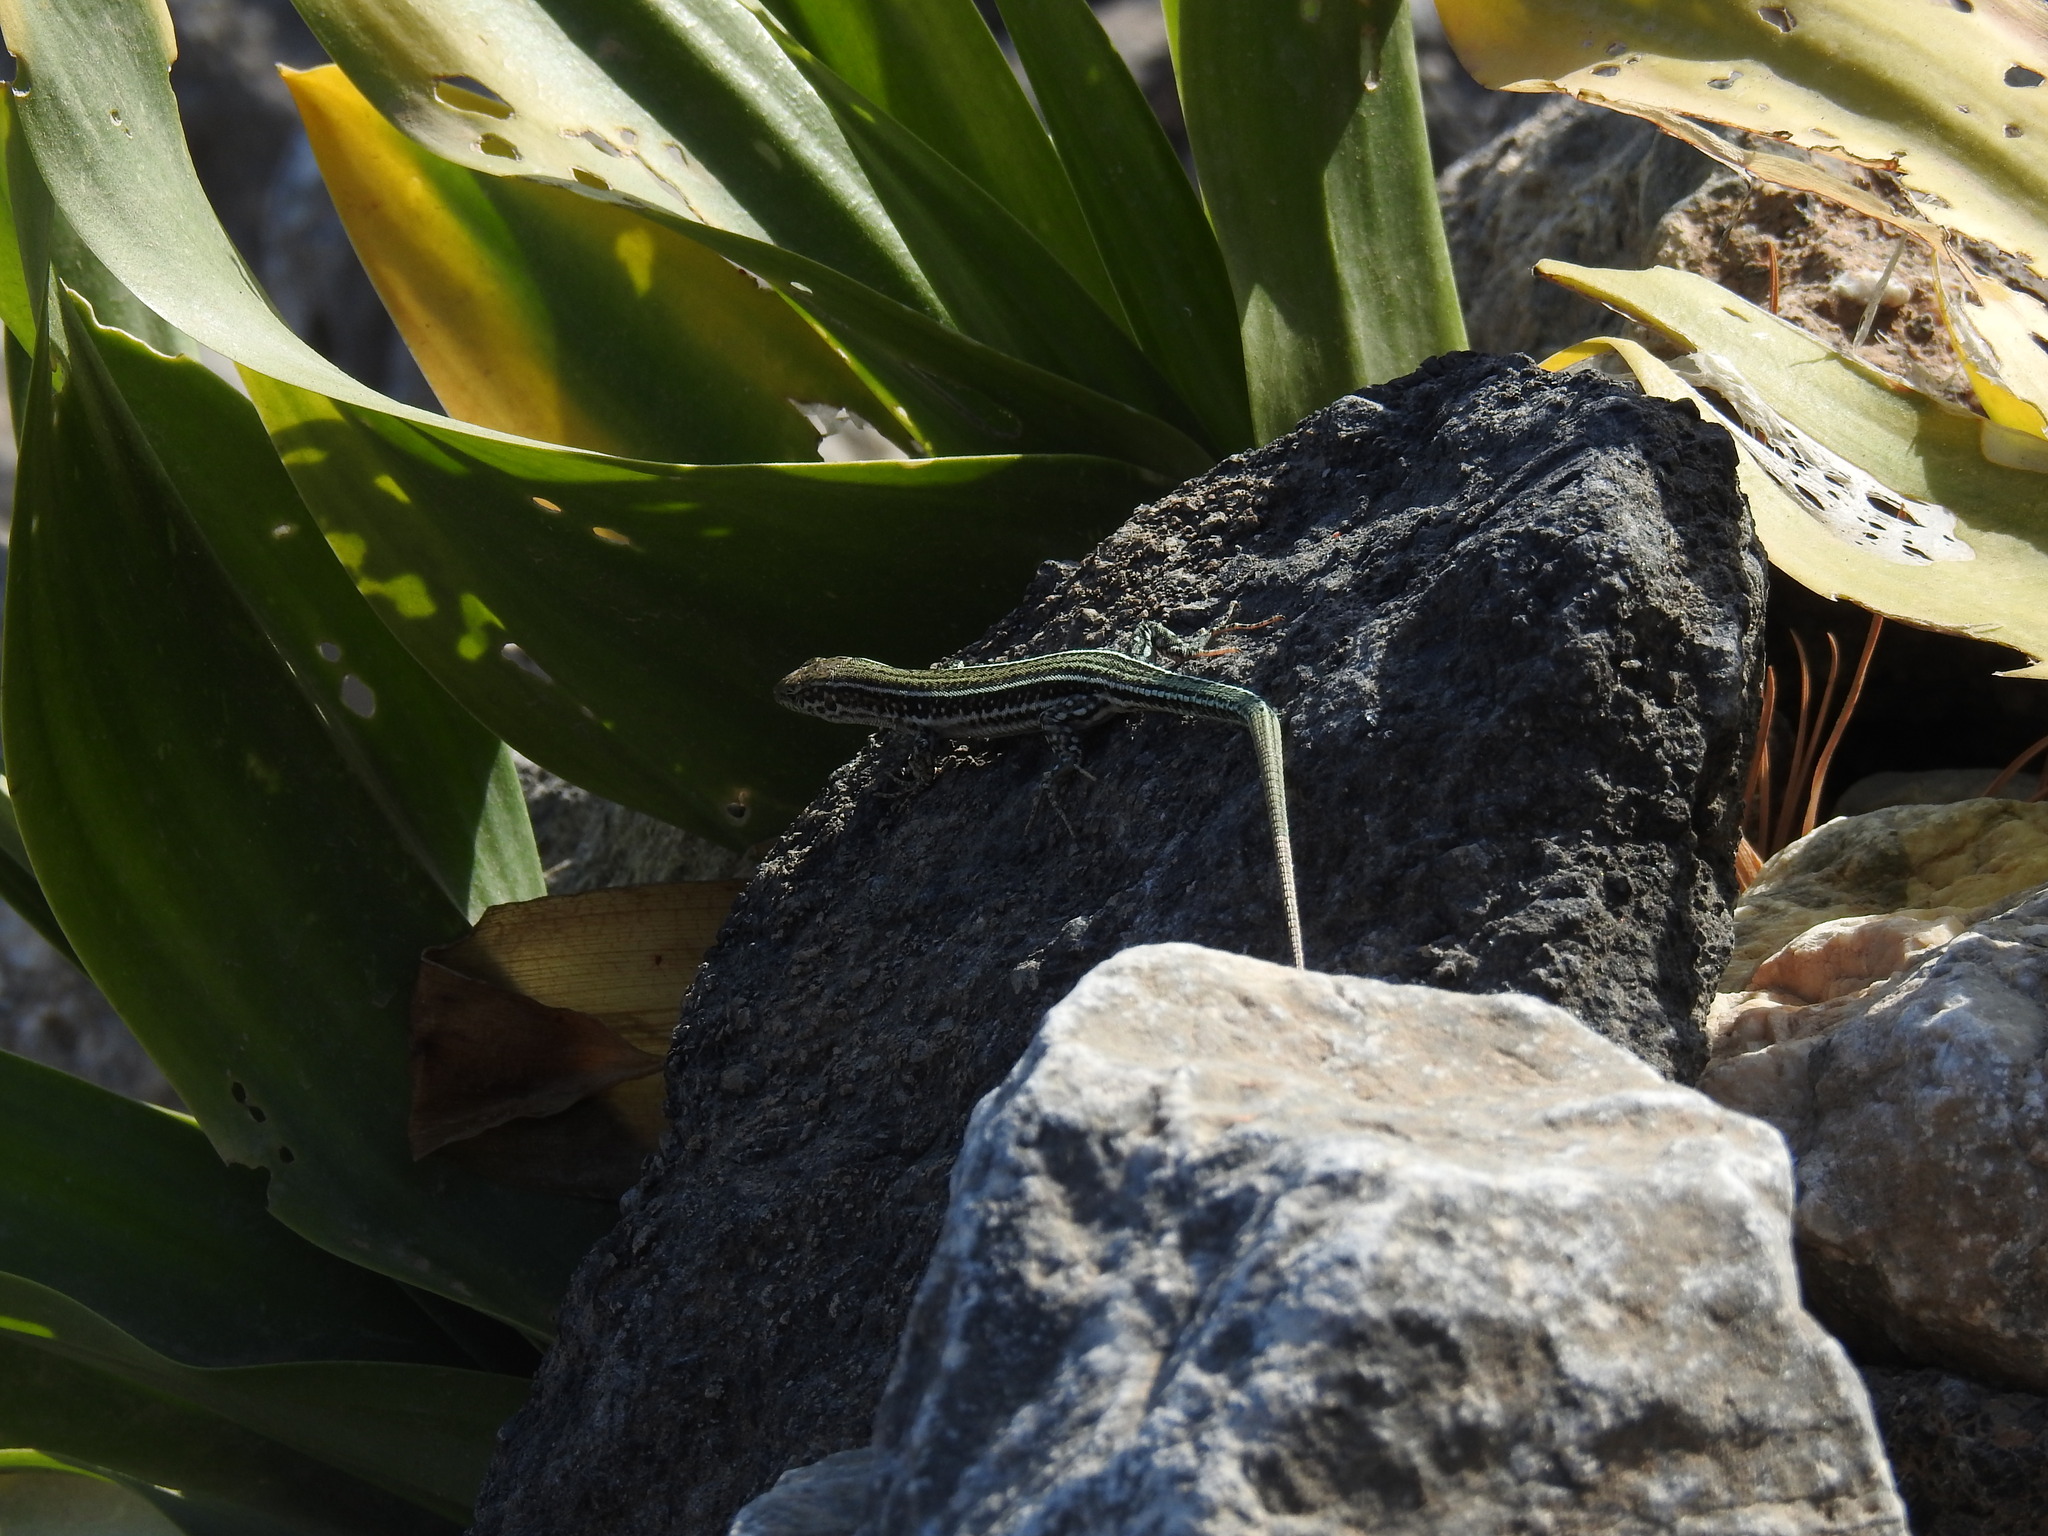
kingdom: Animalia
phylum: Chordata
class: Squamata
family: Lacertidae
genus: Podarcis
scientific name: Podarcis cretensis
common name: Cretan wall lizard
